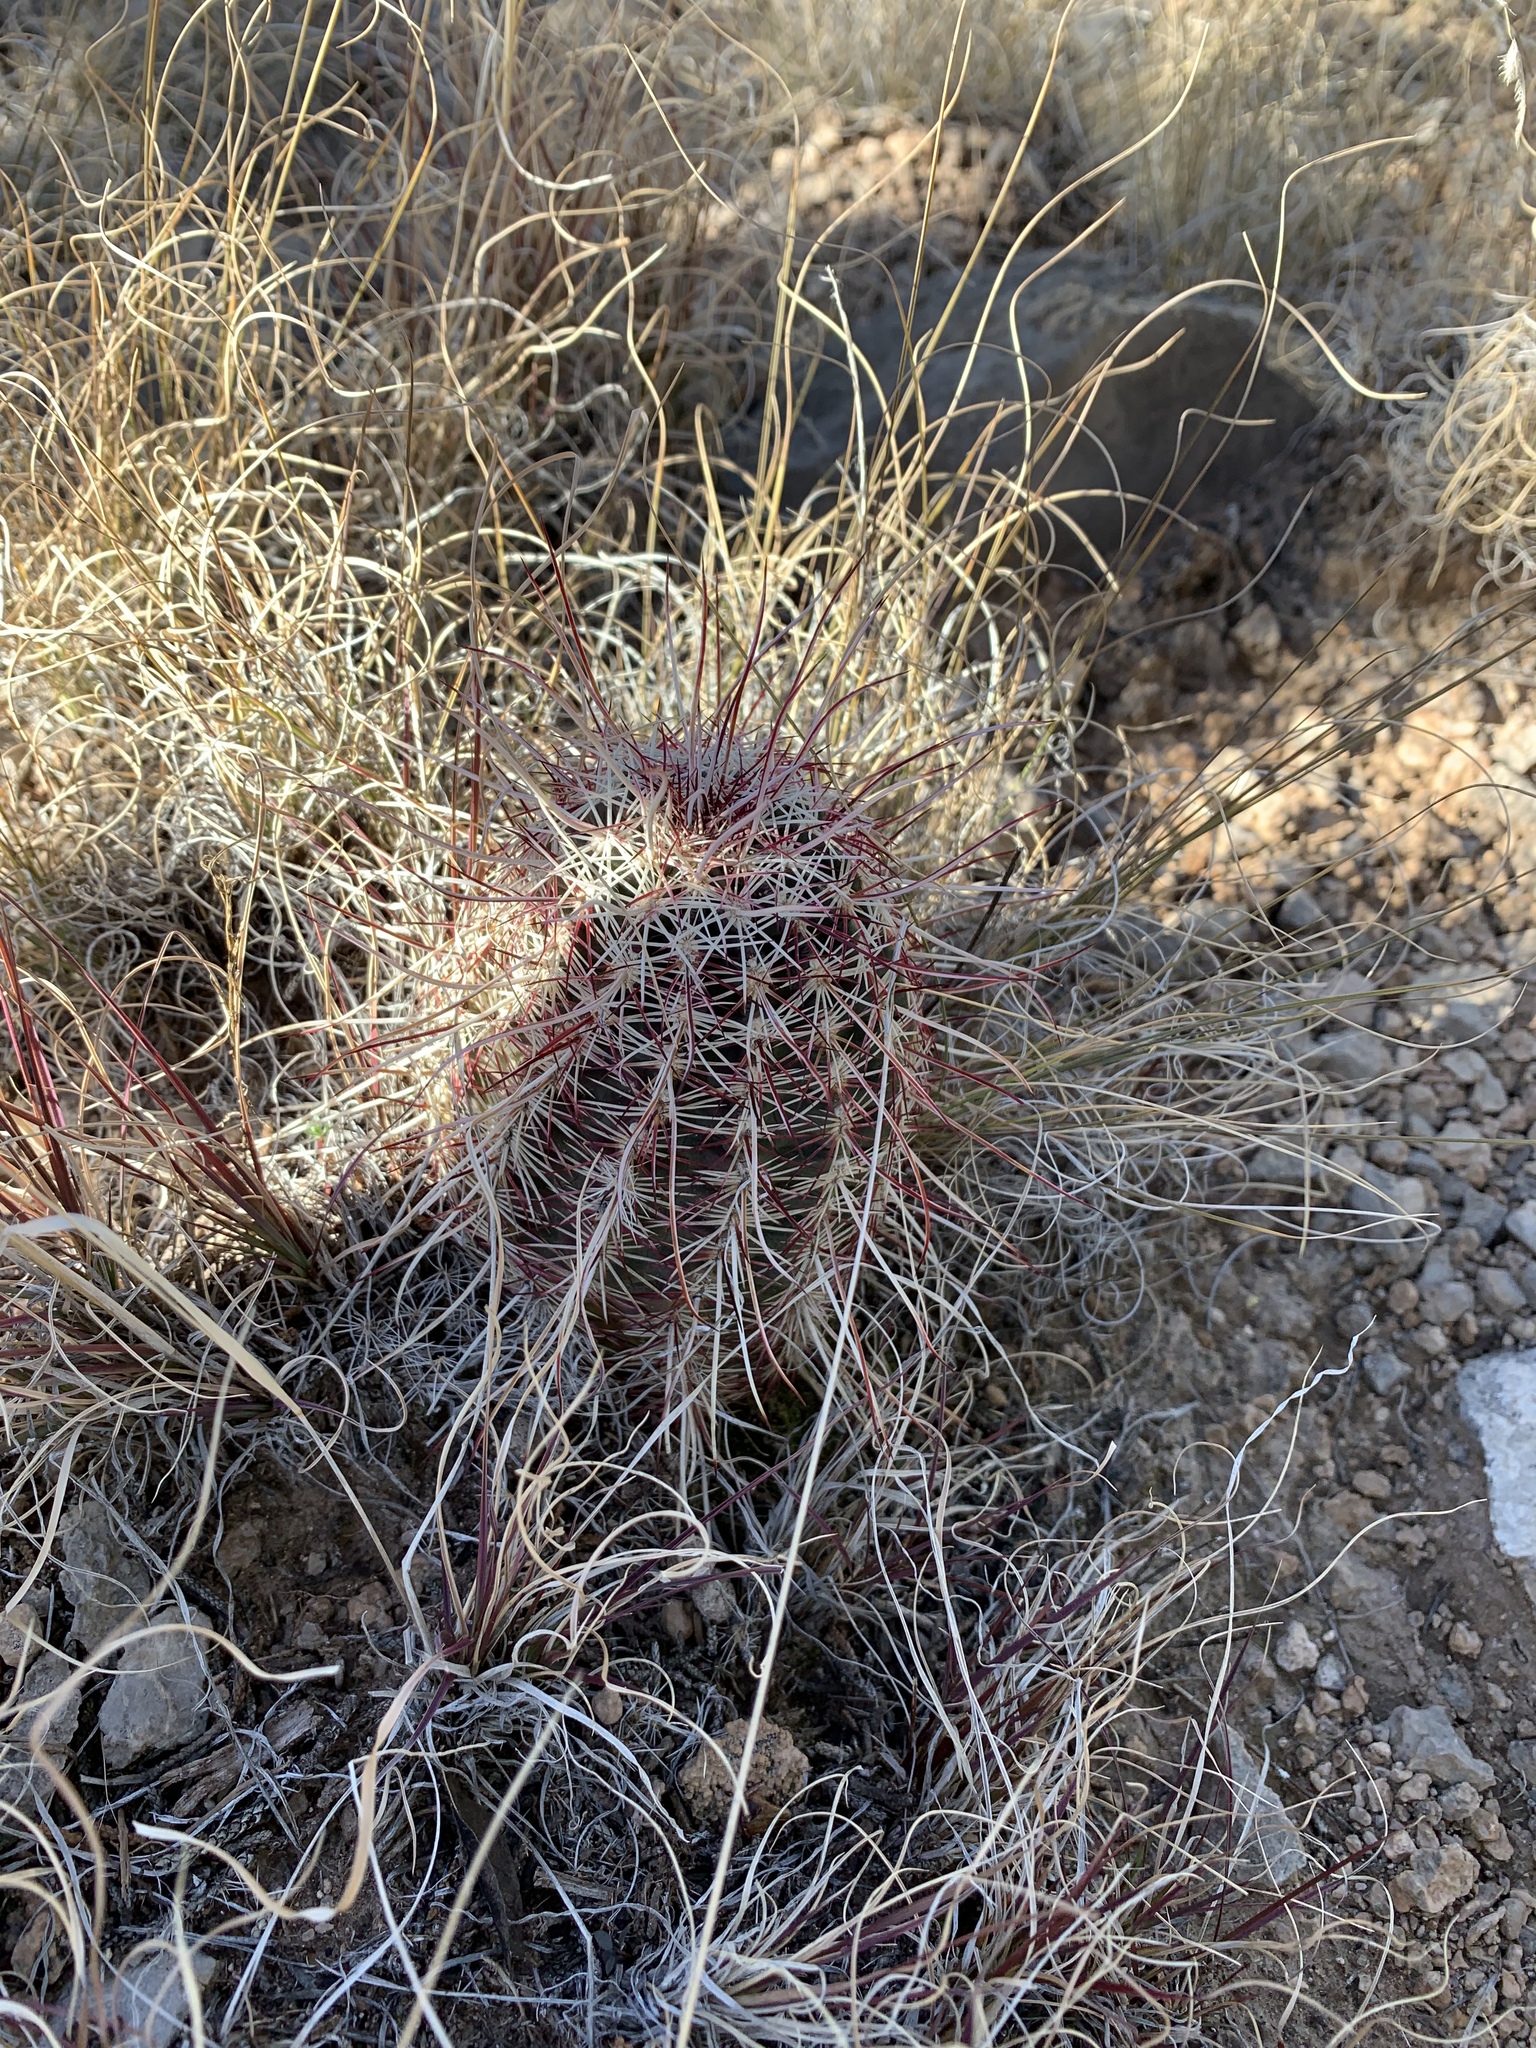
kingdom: Plantae
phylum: Tracheophyta
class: Magnoliopsida
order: Caryophyllales
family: Cactaceae
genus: Echinocereus
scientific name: Echinocereus viridiflorus
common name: Nylon hedgehog cactus
